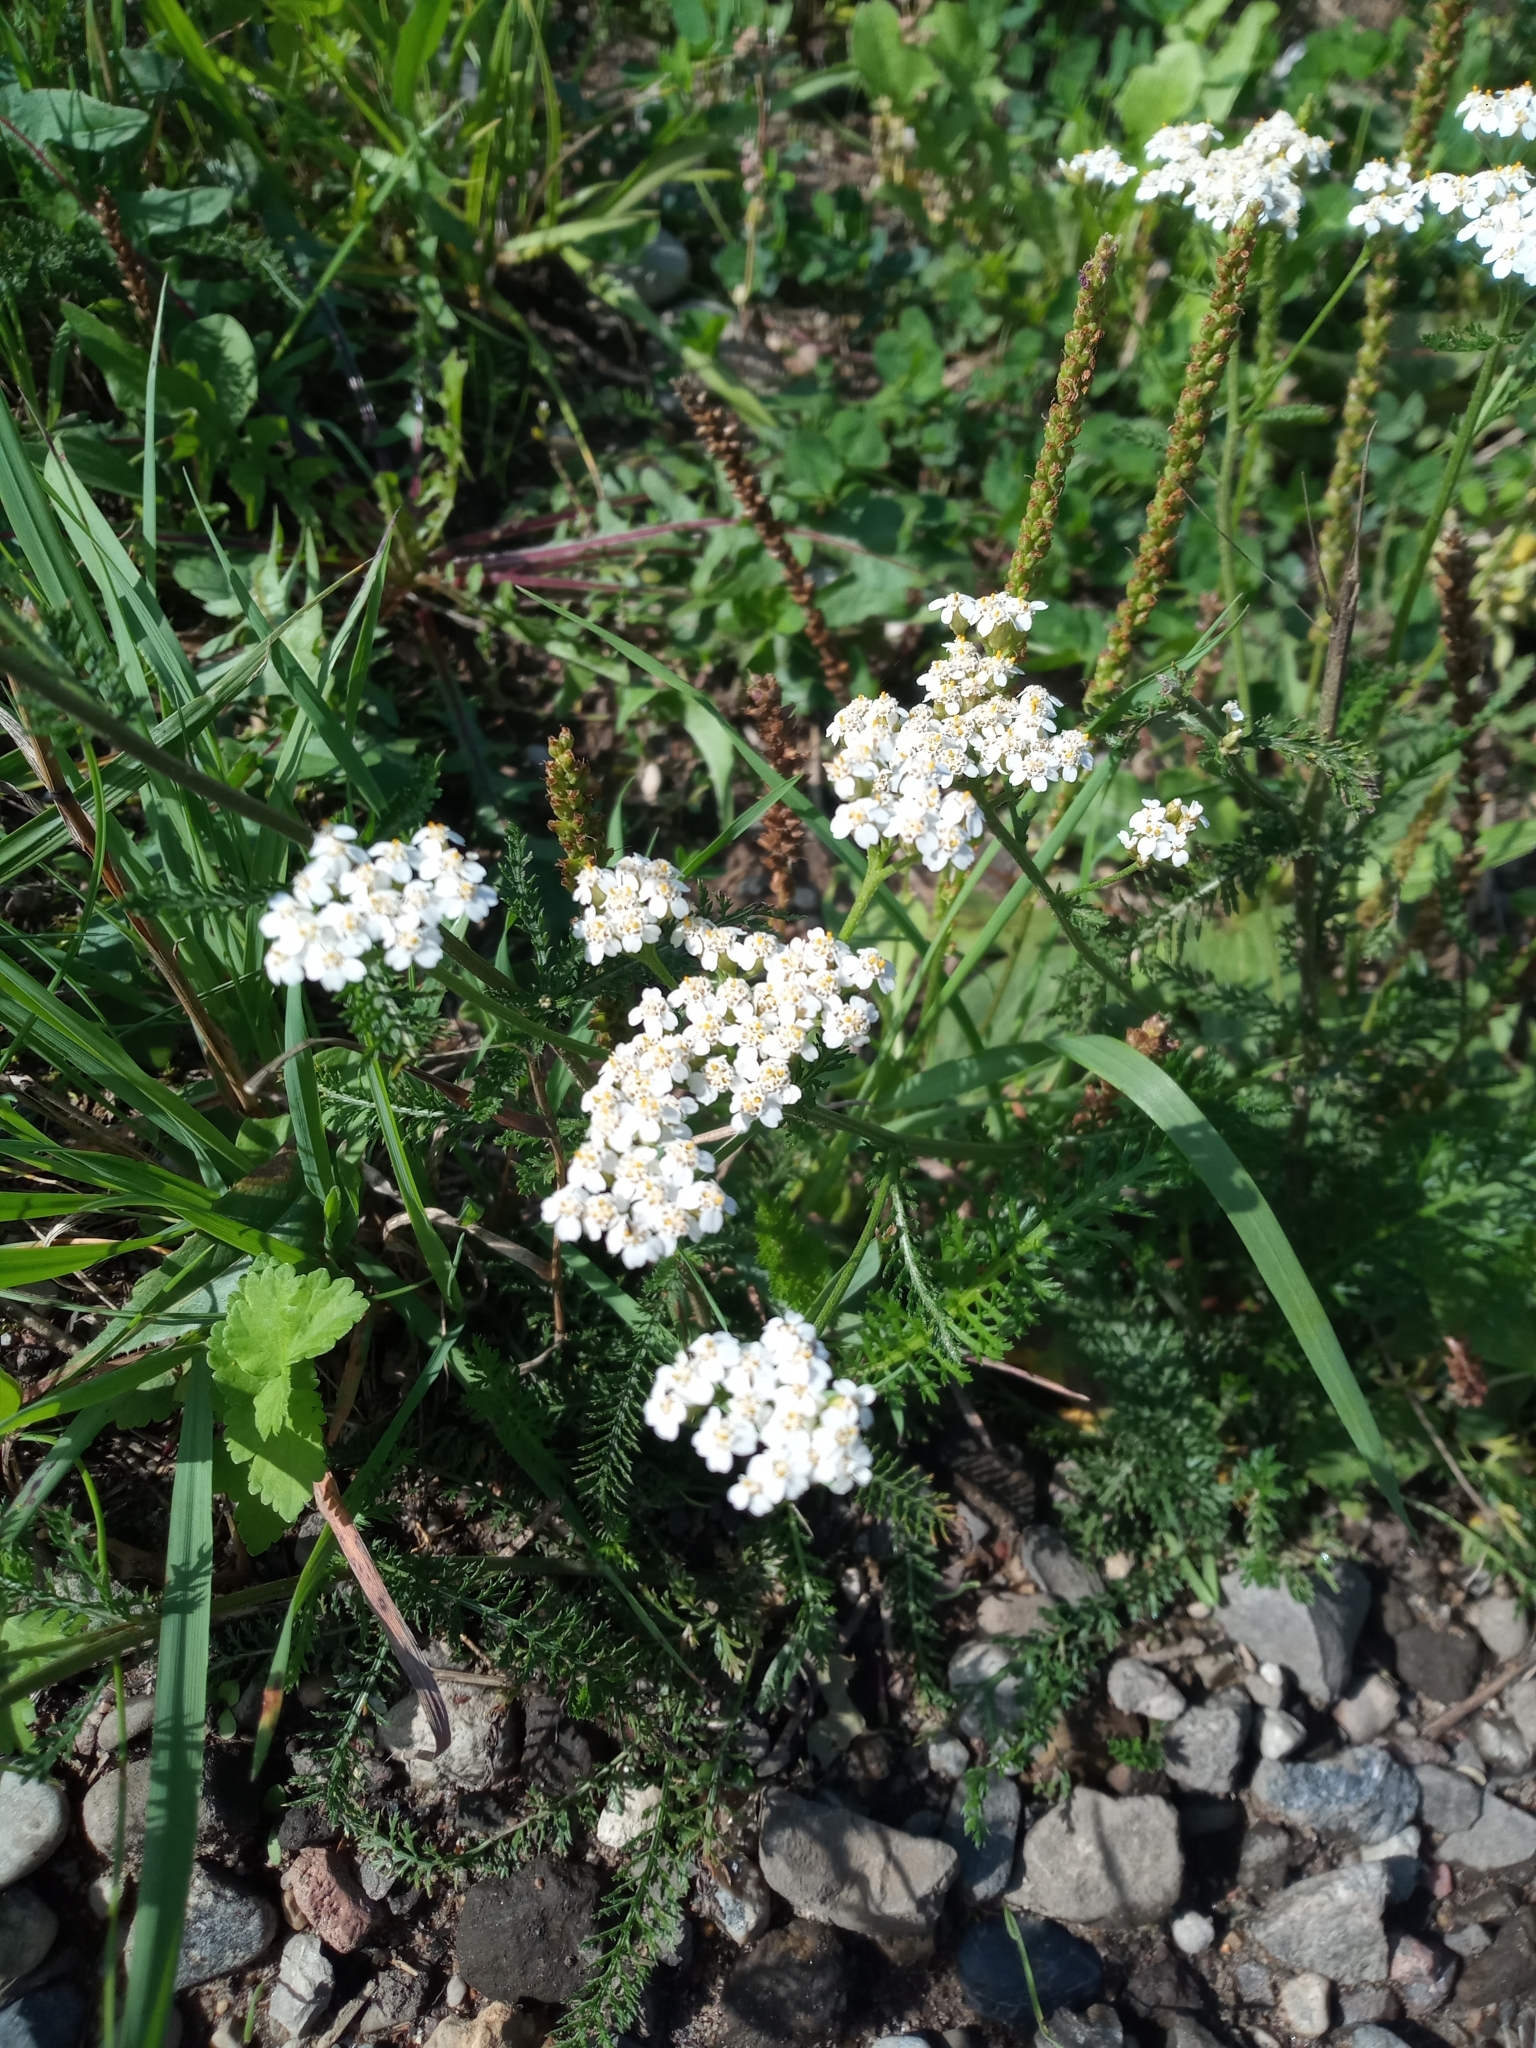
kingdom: Plantae
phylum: Tracheophyta
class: Magnoliopsida
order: Asterales
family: Asteraceae
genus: Achillea
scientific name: Achillea millefolium
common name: Yarrow
